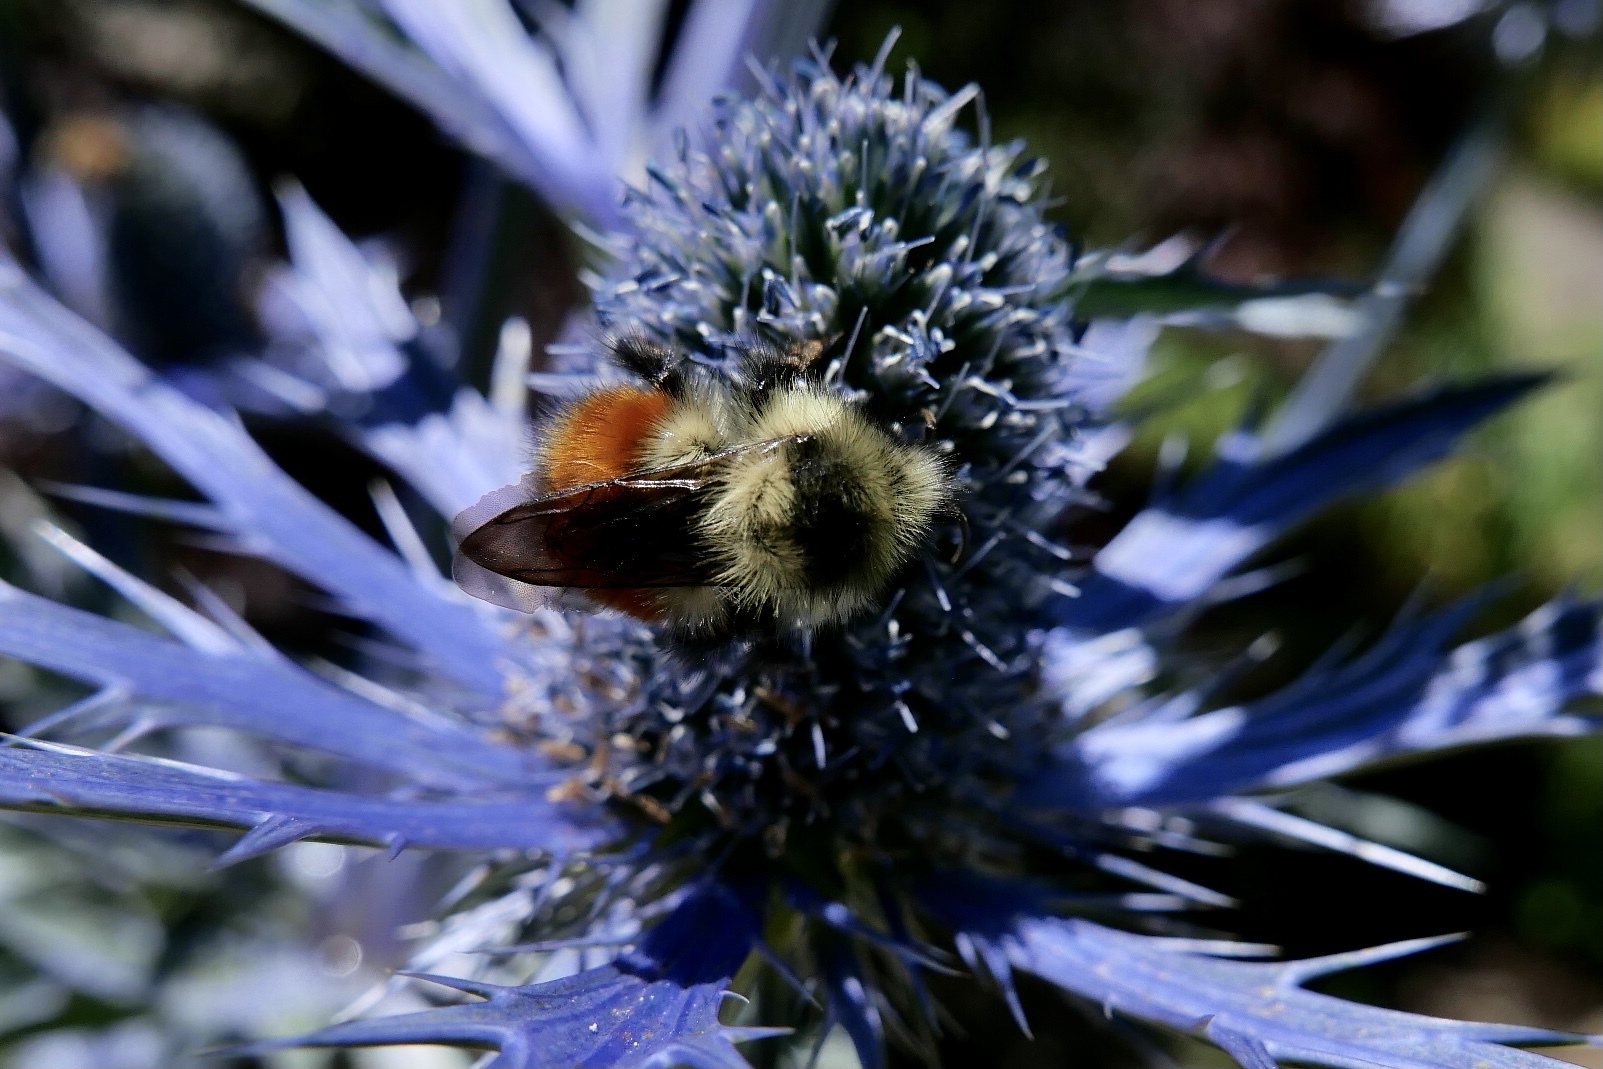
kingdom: Animalia
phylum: Arthropoda
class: Insecta
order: Hymenoptera
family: Apidae
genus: Bombus
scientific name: Bombus melanopygus
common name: Black tail bumble bee
